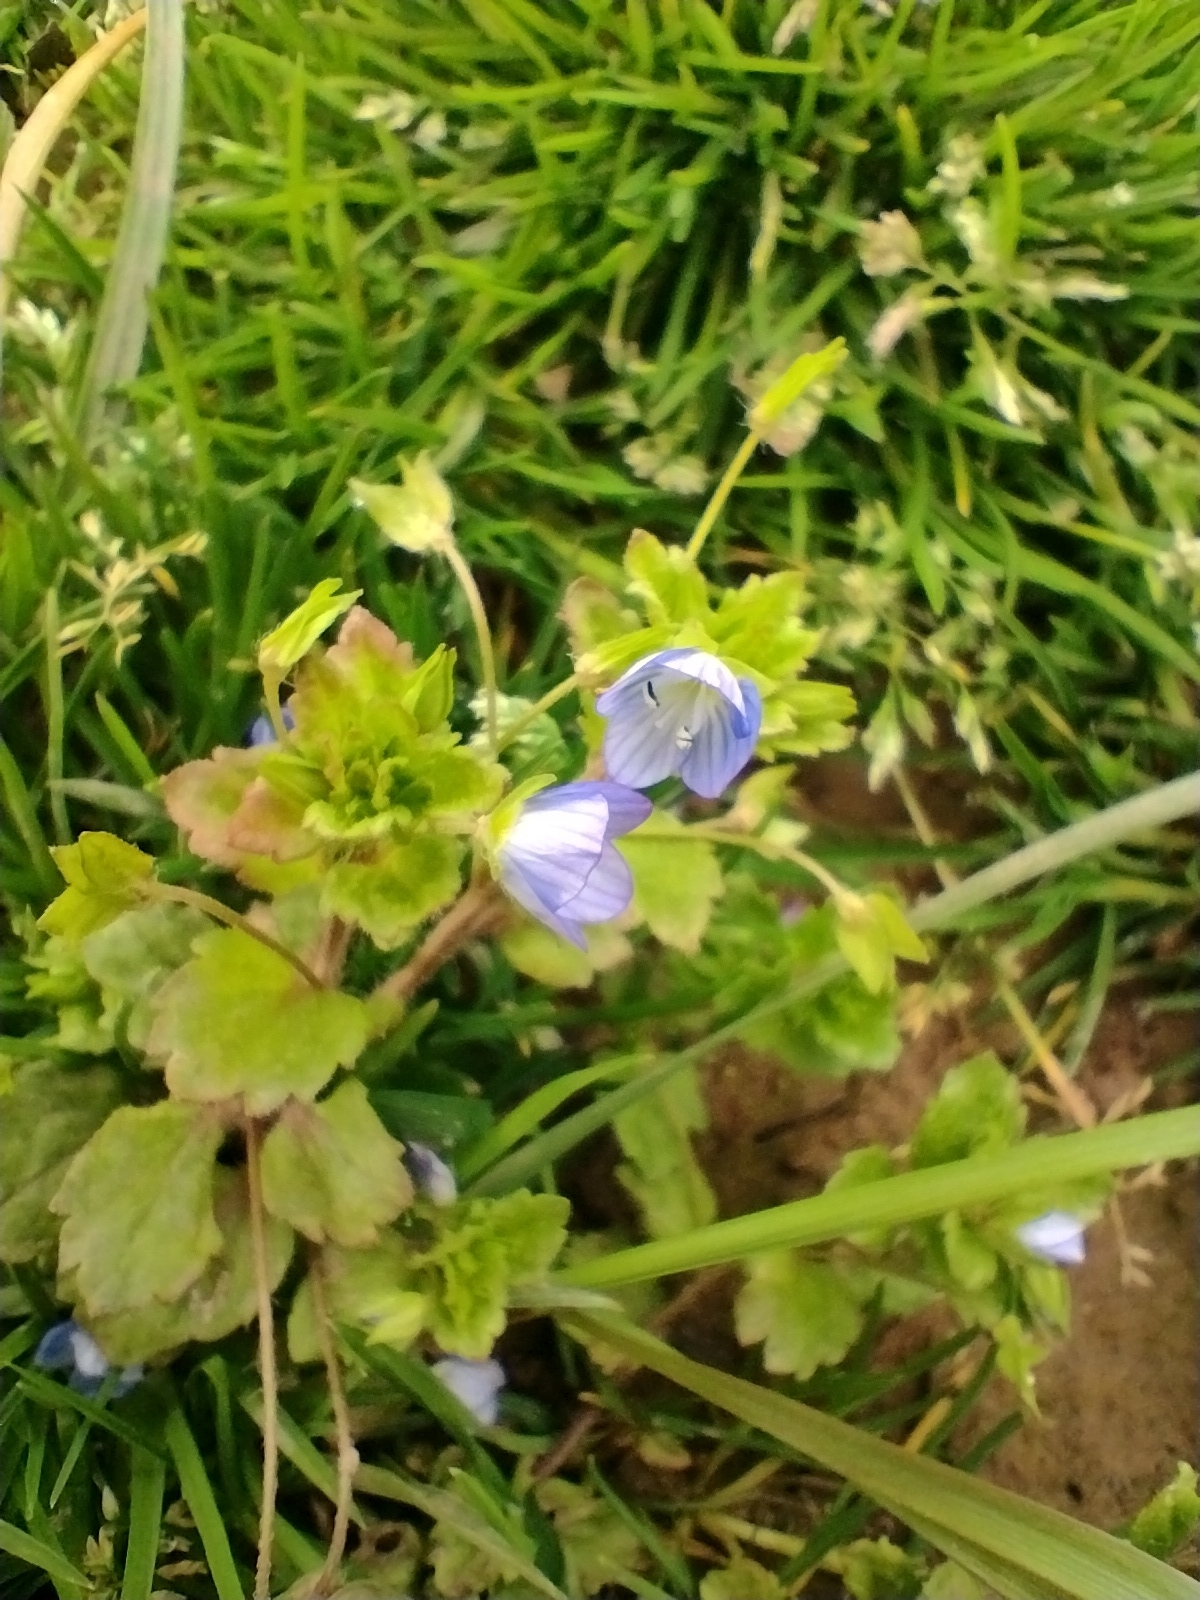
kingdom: Plantae
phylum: Tracheophyta
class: Magnoliopsida
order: Lamiales
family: Plantaginaceae
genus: Veronica
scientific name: Veronica persica
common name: Common field-speedwell
